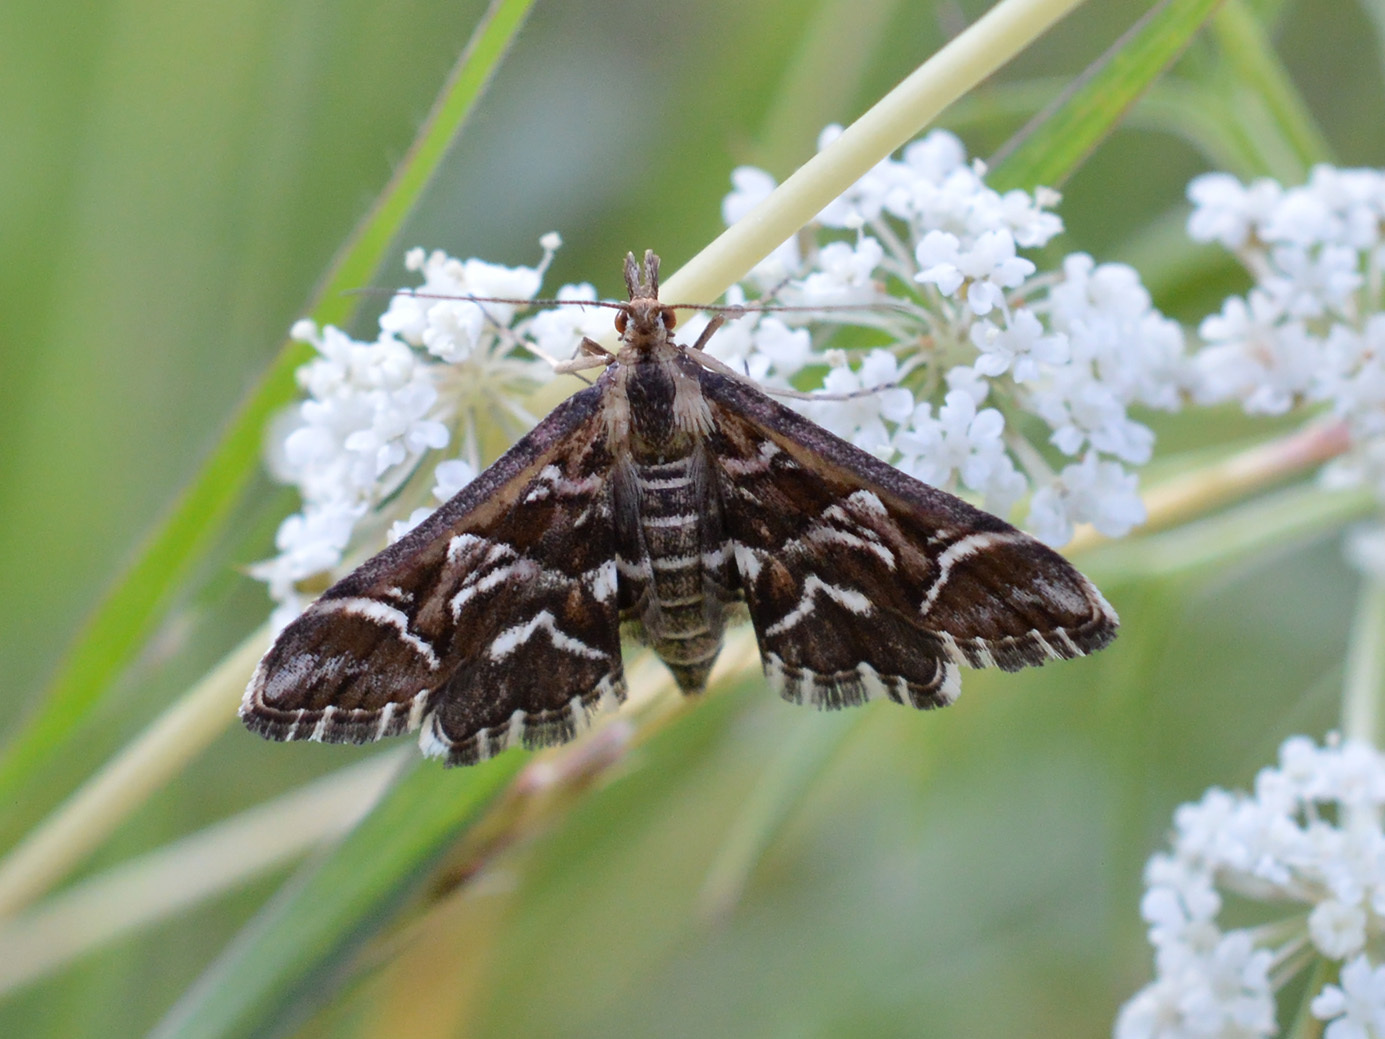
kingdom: Animalia
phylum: Arthropoda
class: Insecta
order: Lepidoptera
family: Crambidae
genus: Diasemia
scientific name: Diasemia reticularis
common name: Lettered china-mark
